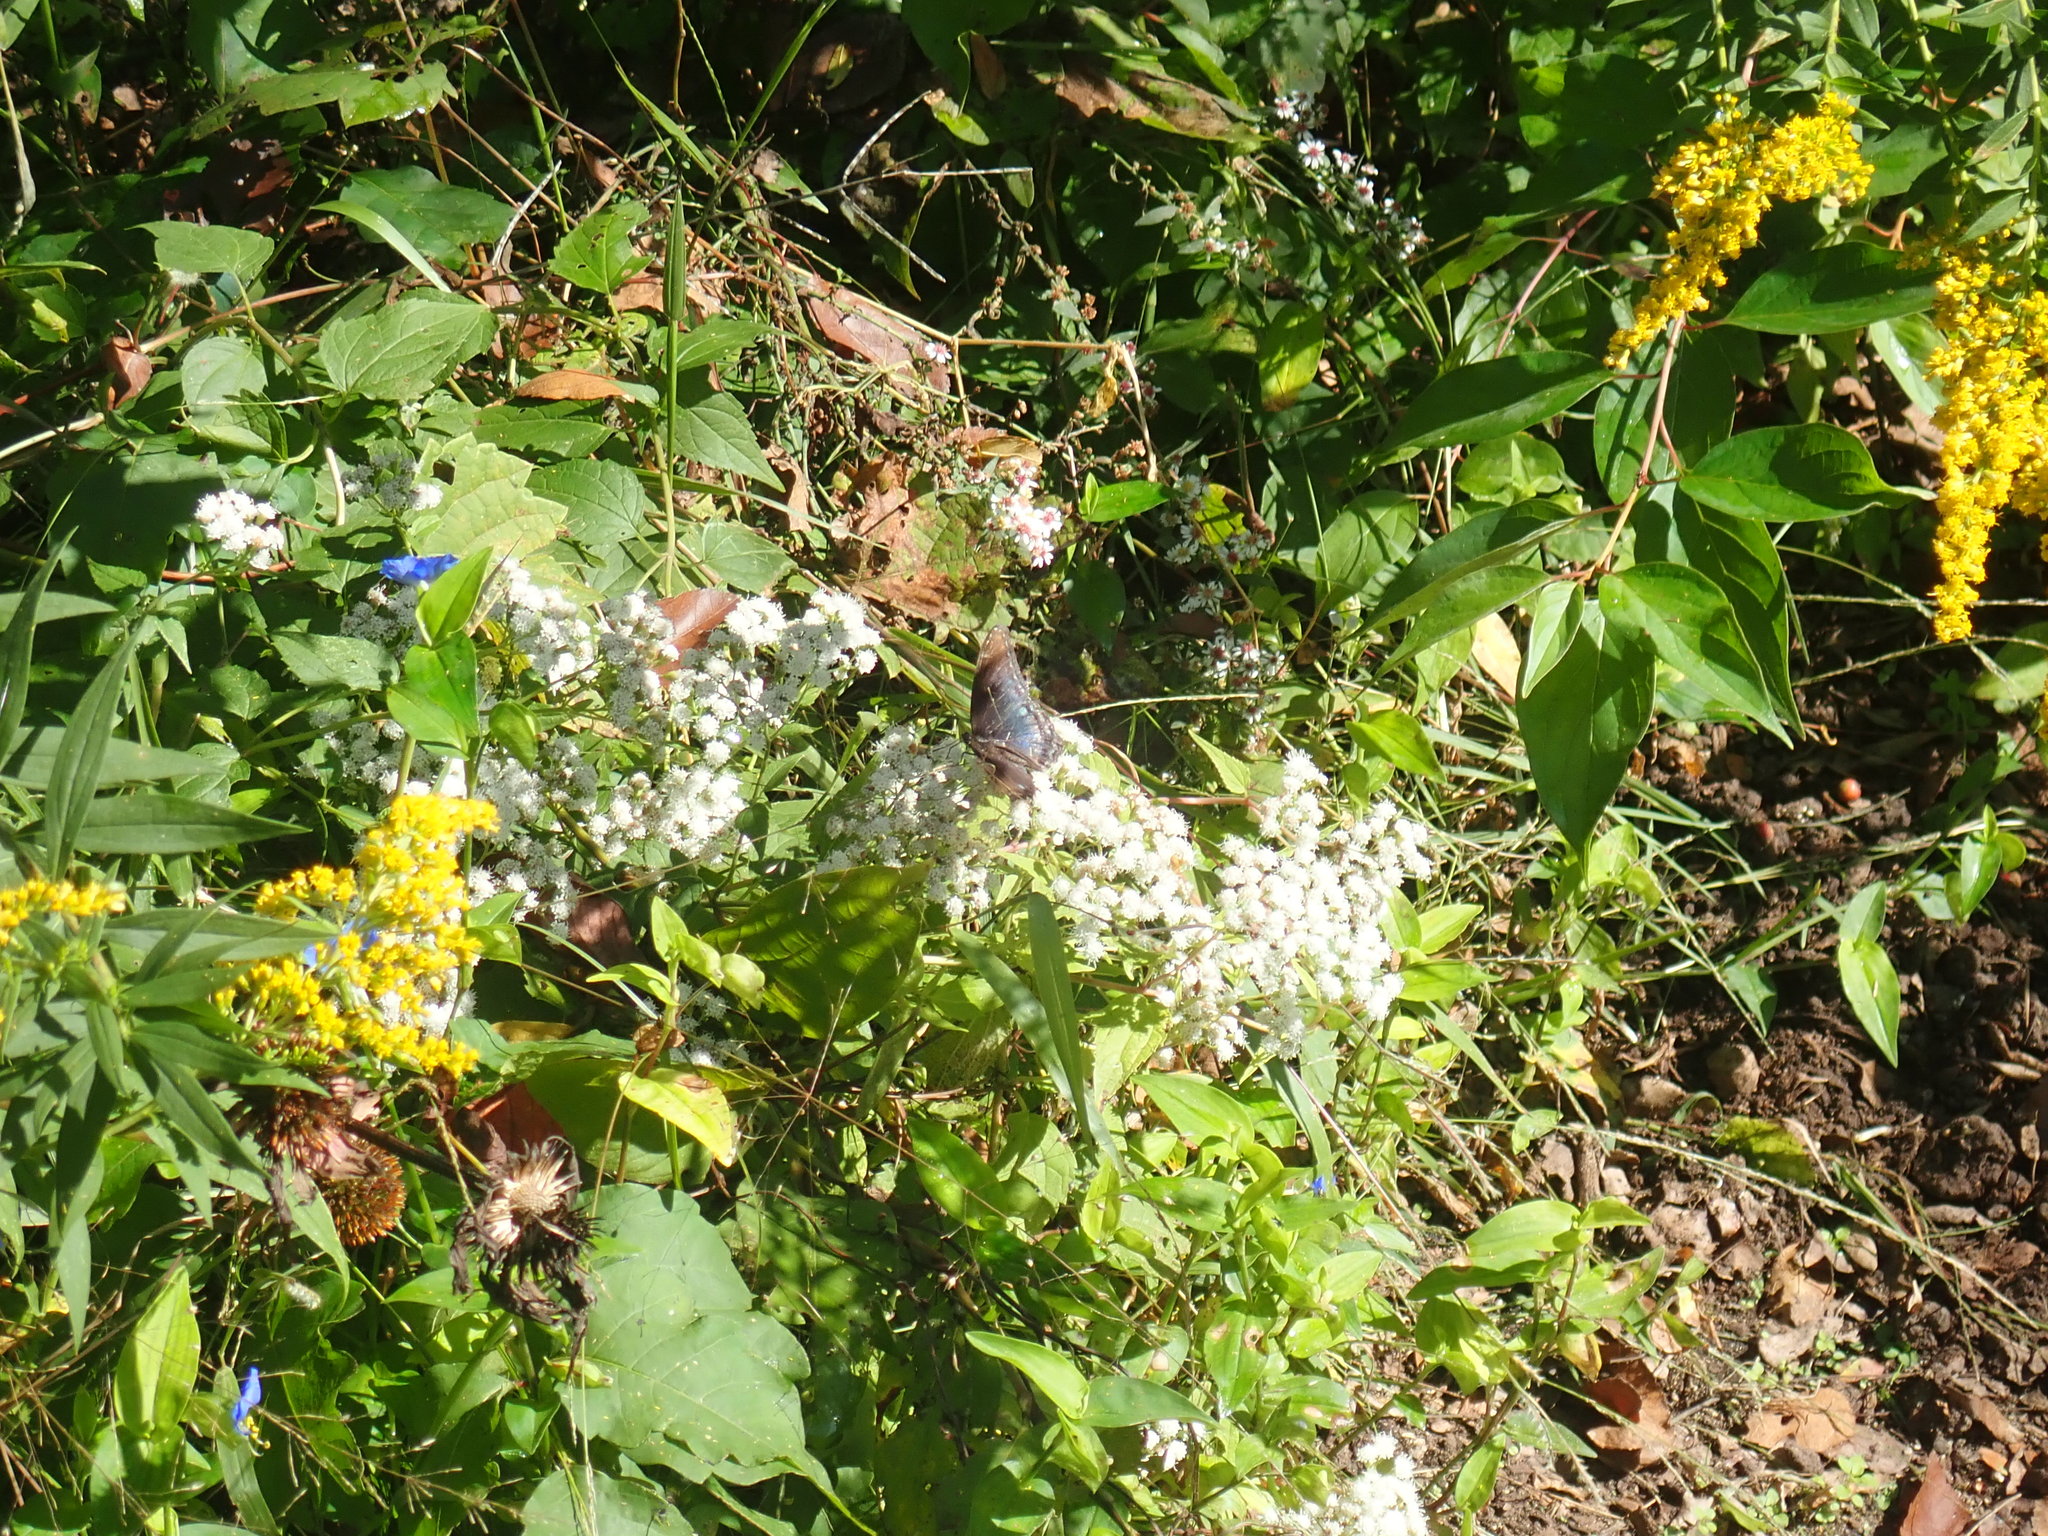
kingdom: Animalia
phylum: Arthropoda
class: Insecta
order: Lepidoptera
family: Nymphalidae
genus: Limenitis
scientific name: Limenitis astyanax
